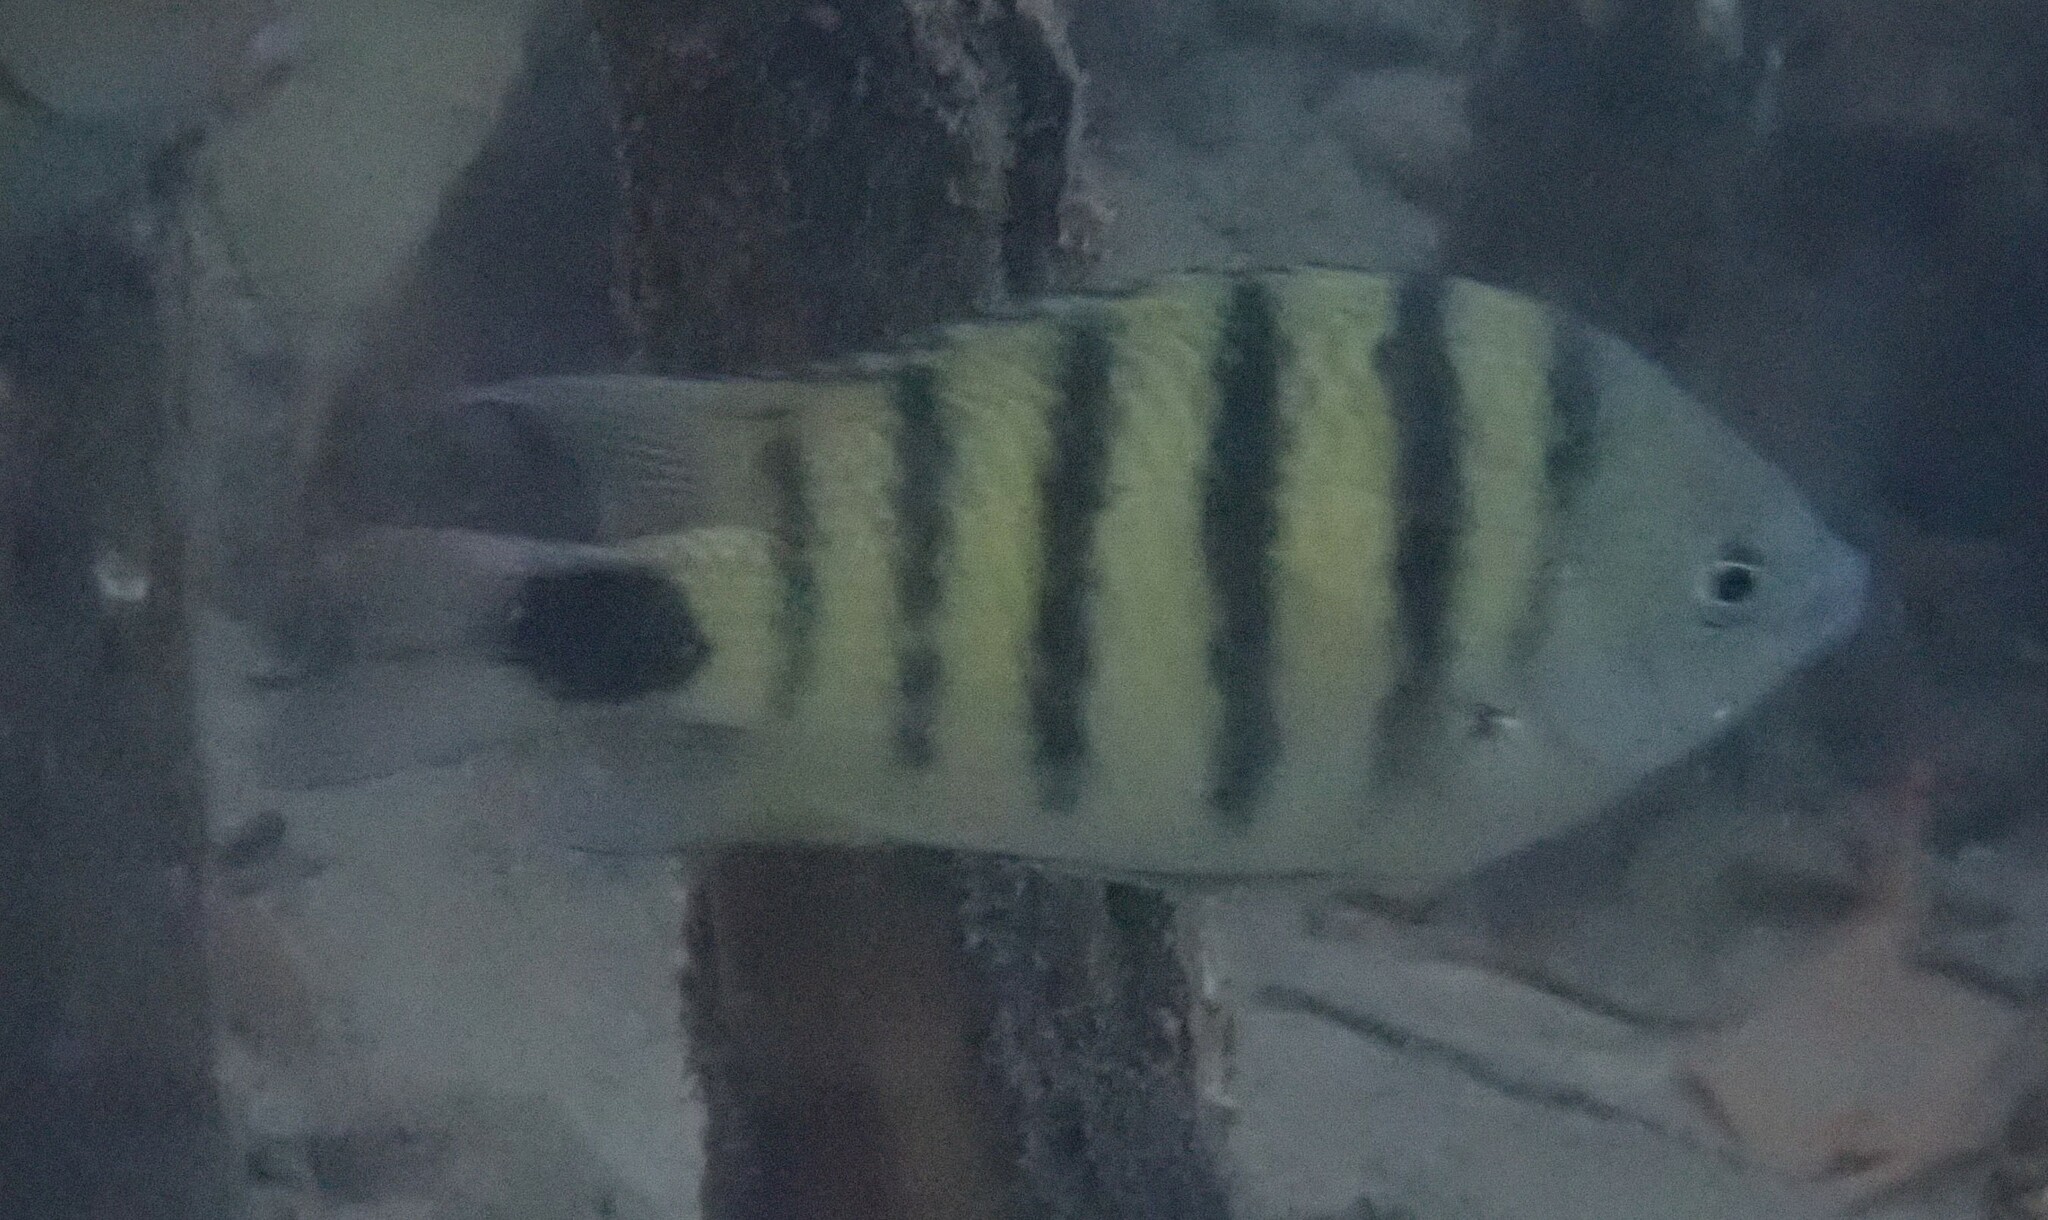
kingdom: Animalia
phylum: Chordata
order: Perciformes
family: Pomacentridae
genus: Abudefduf
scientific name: Abudefduf lorenzi
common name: Black-tail sergeant
